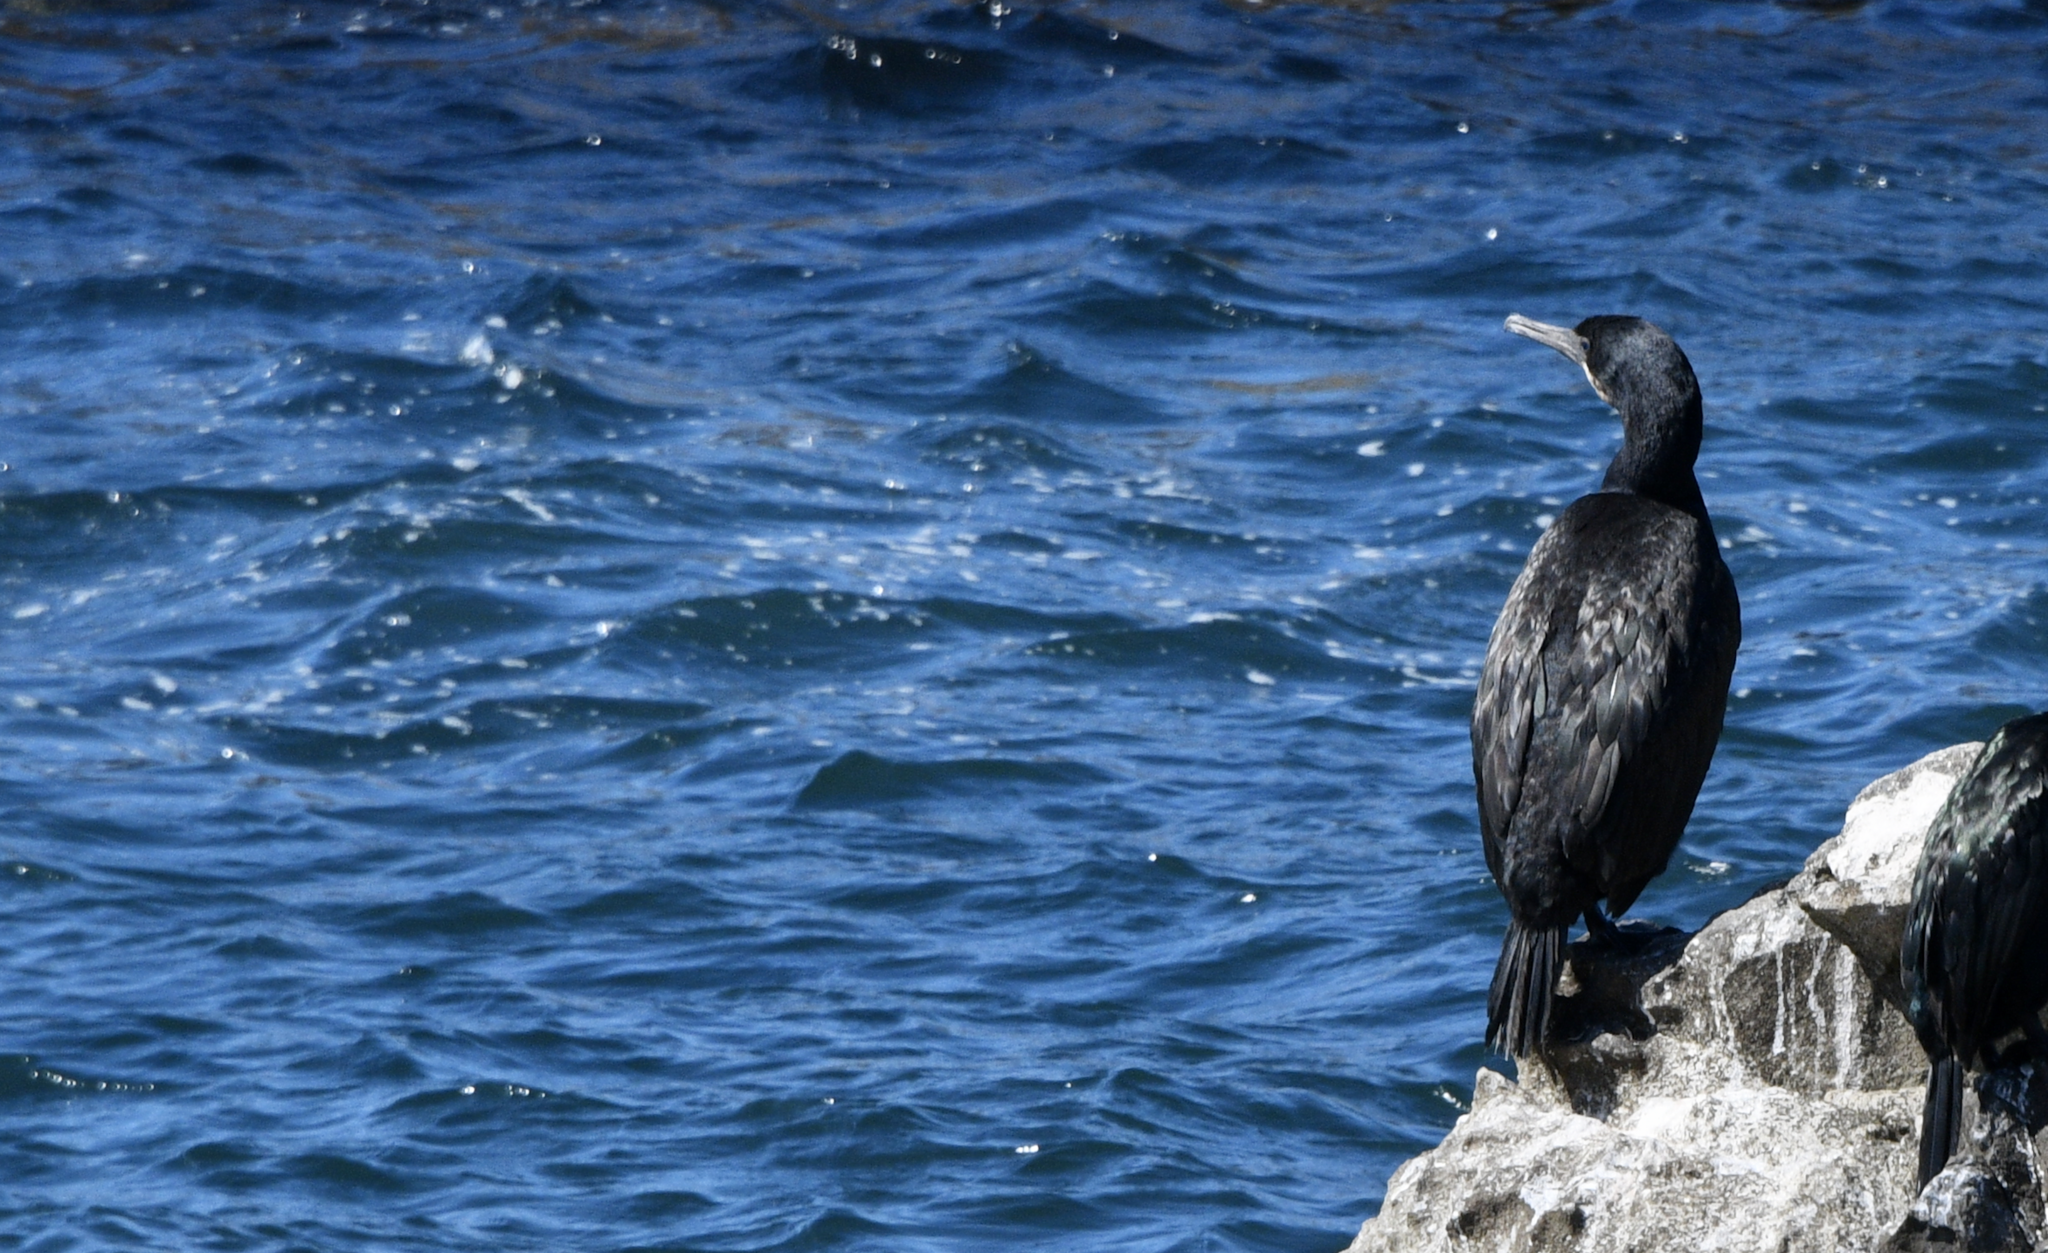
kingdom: Animalia
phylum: Chordata
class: Aves
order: Suliformes
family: Phalacrocoracidae
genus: Urile
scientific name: Urile penicillatus
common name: Brandt's cormorant
